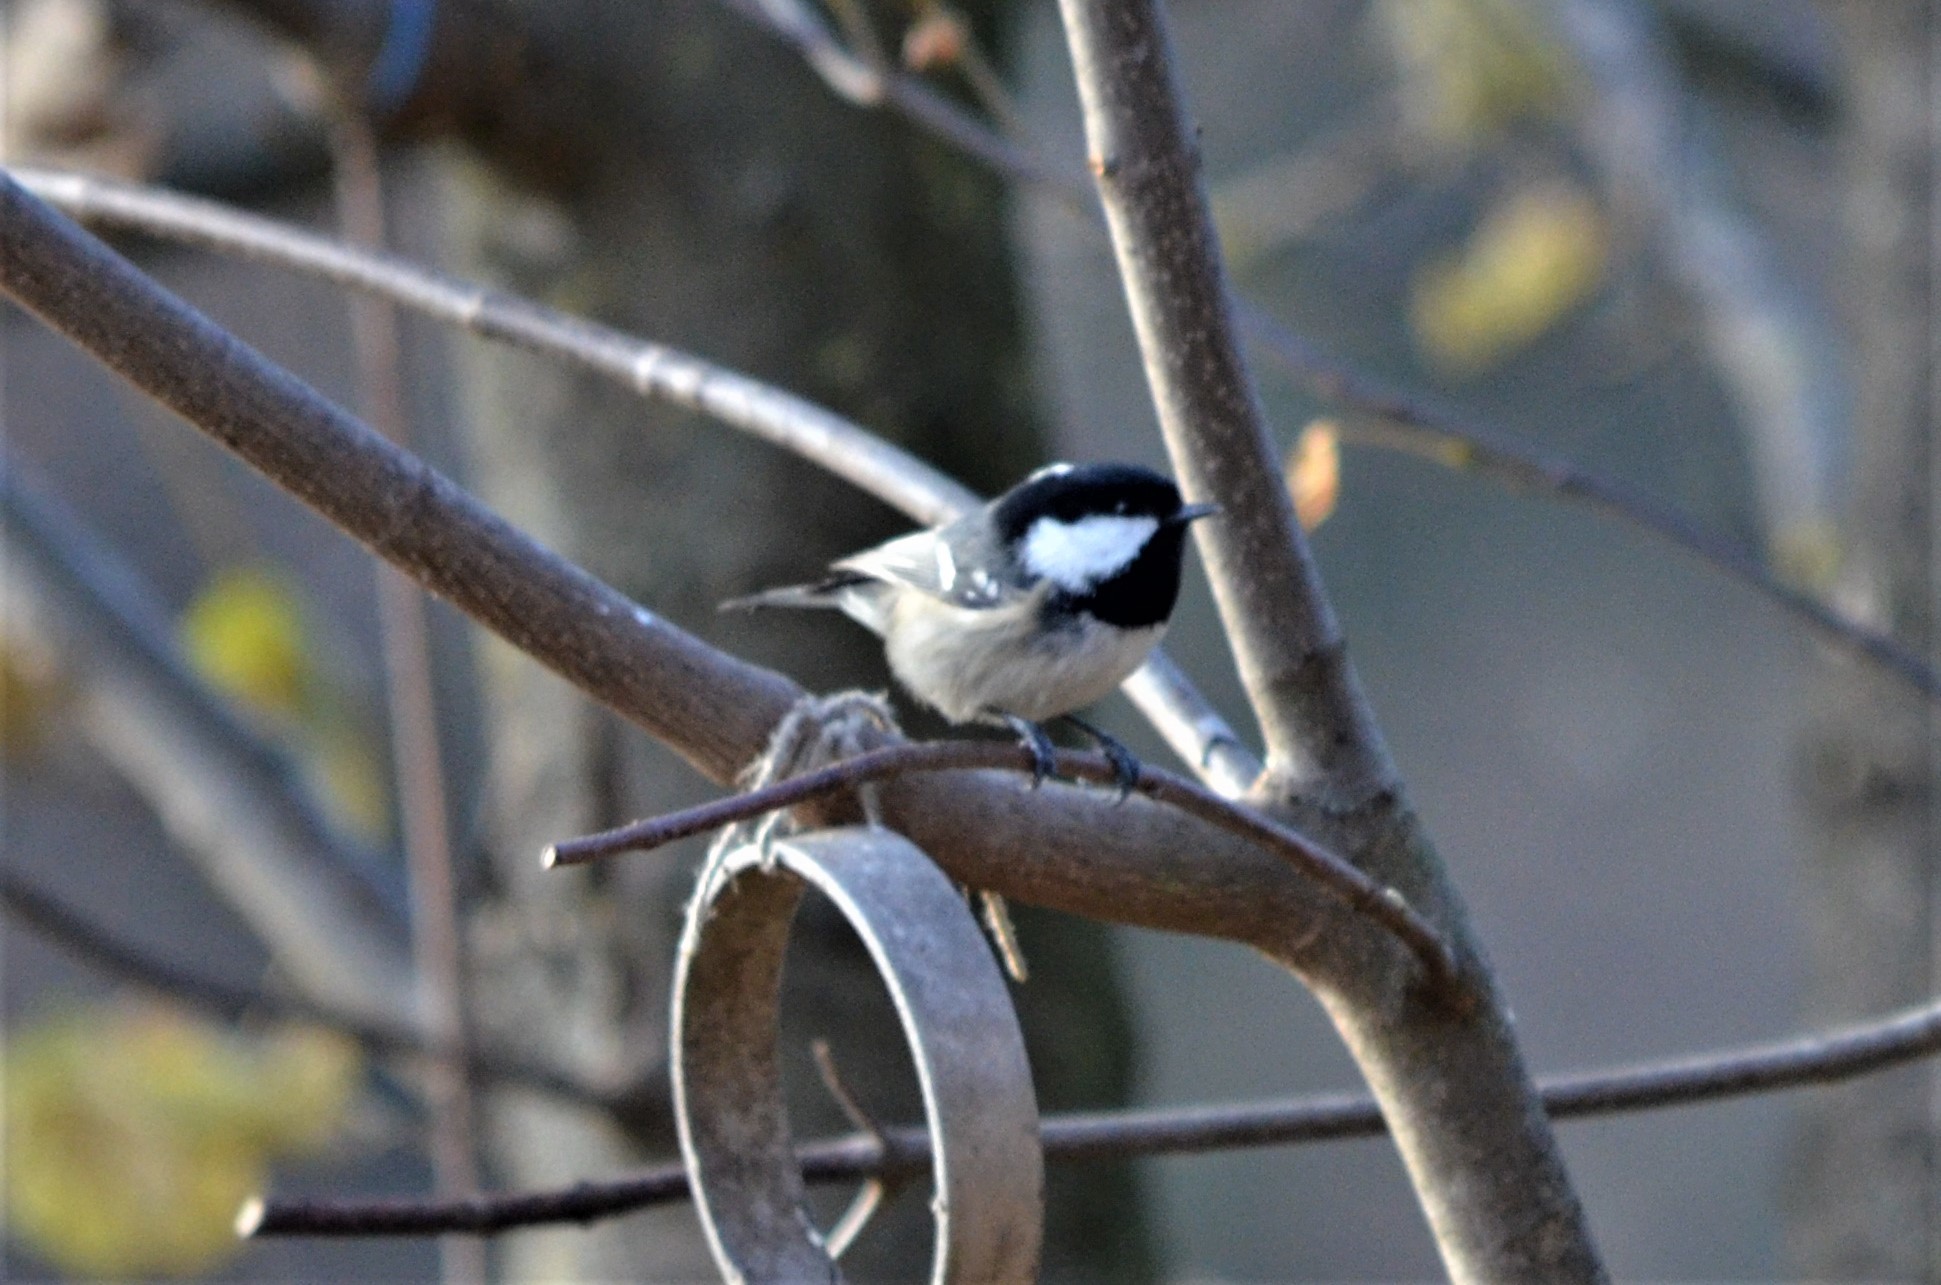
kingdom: Animalia
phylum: Chordata
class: Aves
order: Passeriformes
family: Paridae
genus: Periparus
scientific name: Periparus ater
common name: Coal tit
